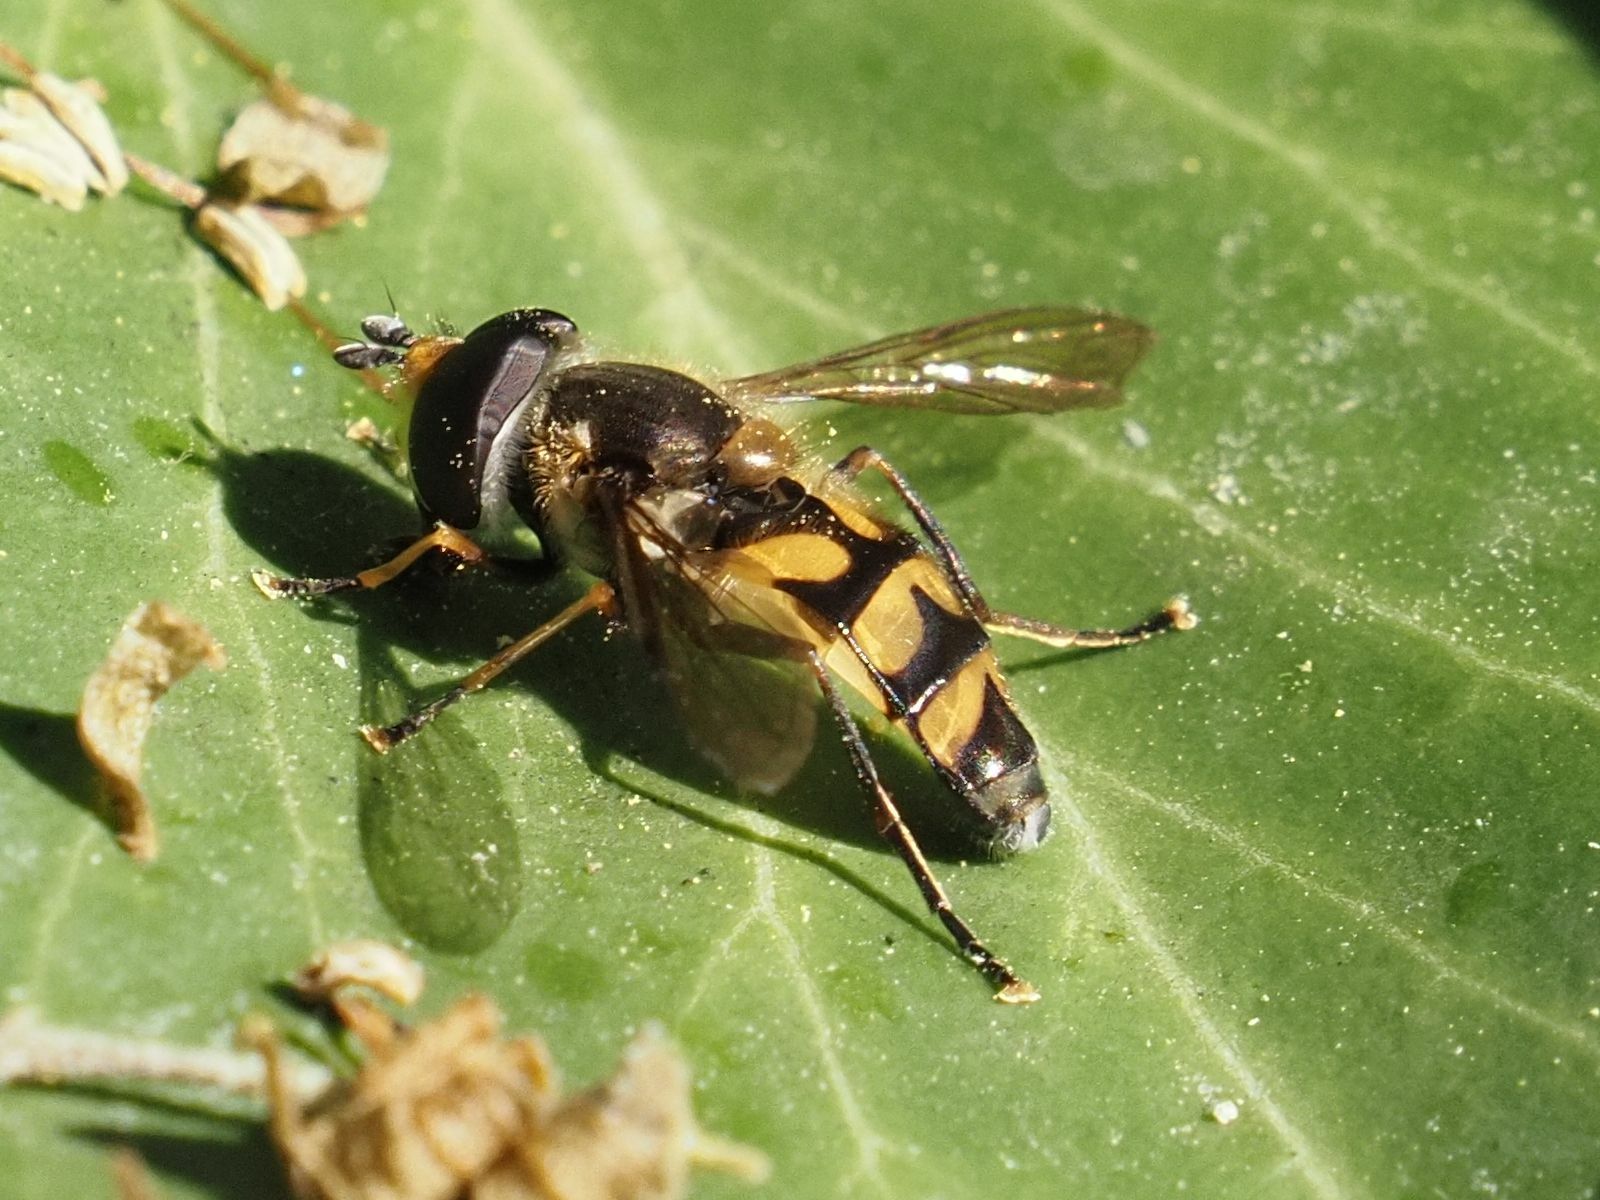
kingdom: Animalia
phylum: Arthropoda
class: Insecta
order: Diptera
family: Syrphidae
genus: Didea
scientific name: Didea fasciata
